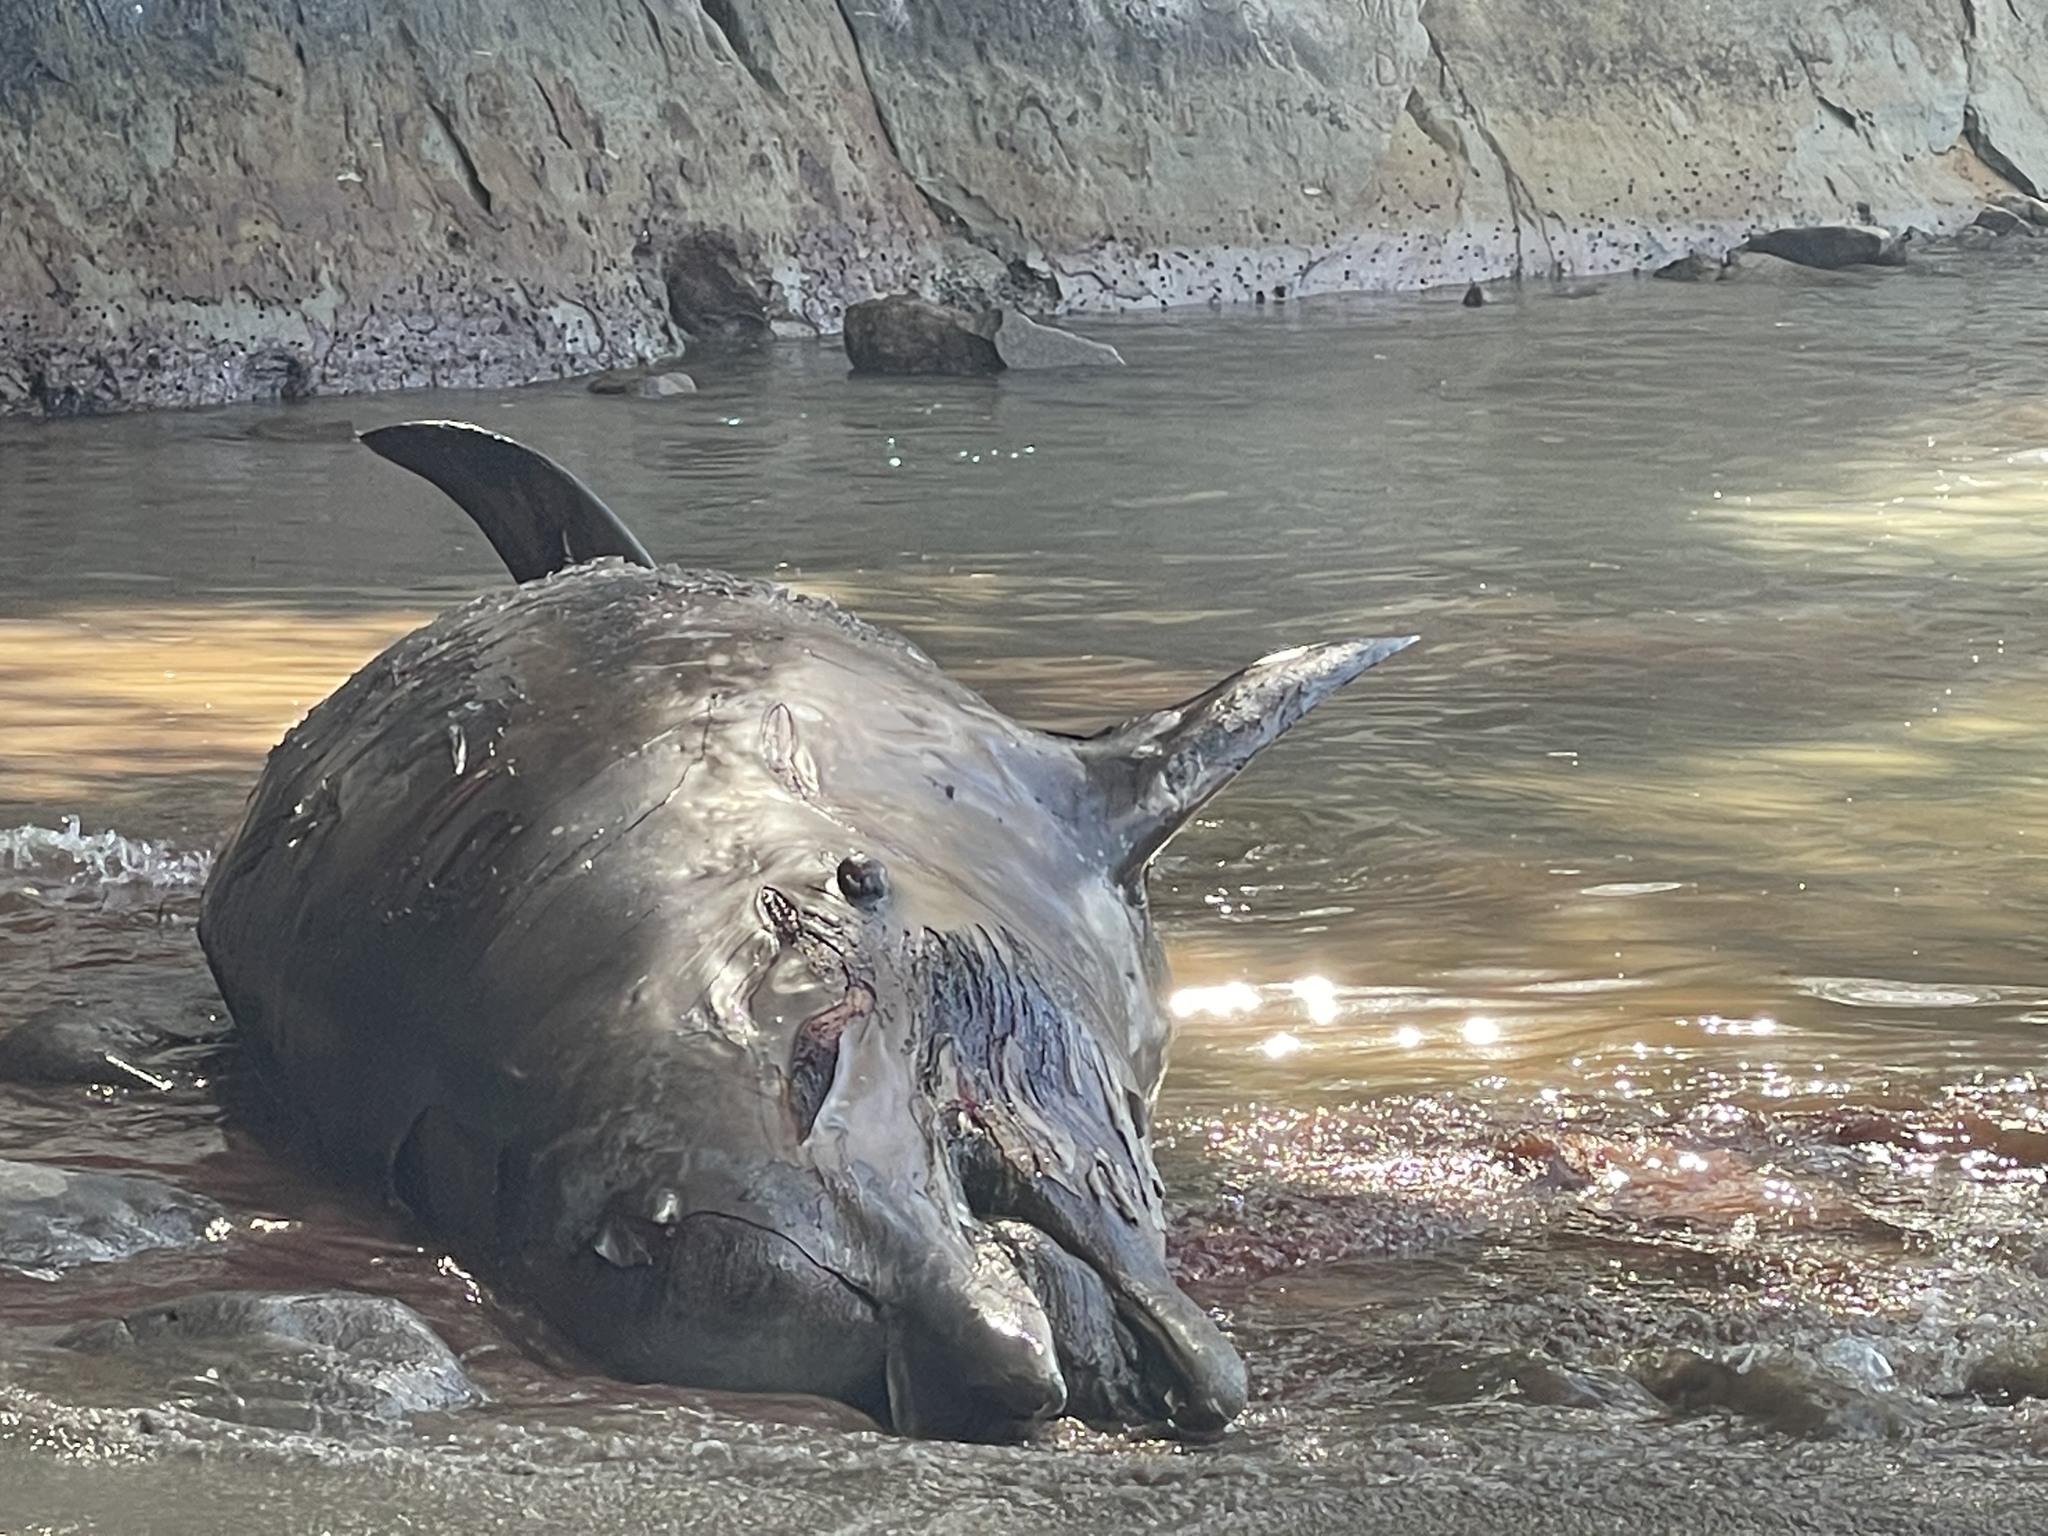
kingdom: Animalia
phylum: Chordata
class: Mammalia
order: Cetacea
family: Hyperoodontidae
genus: Hyperoodon
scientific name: Hyperoodon planifrons
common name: Southern bottlenose whale
